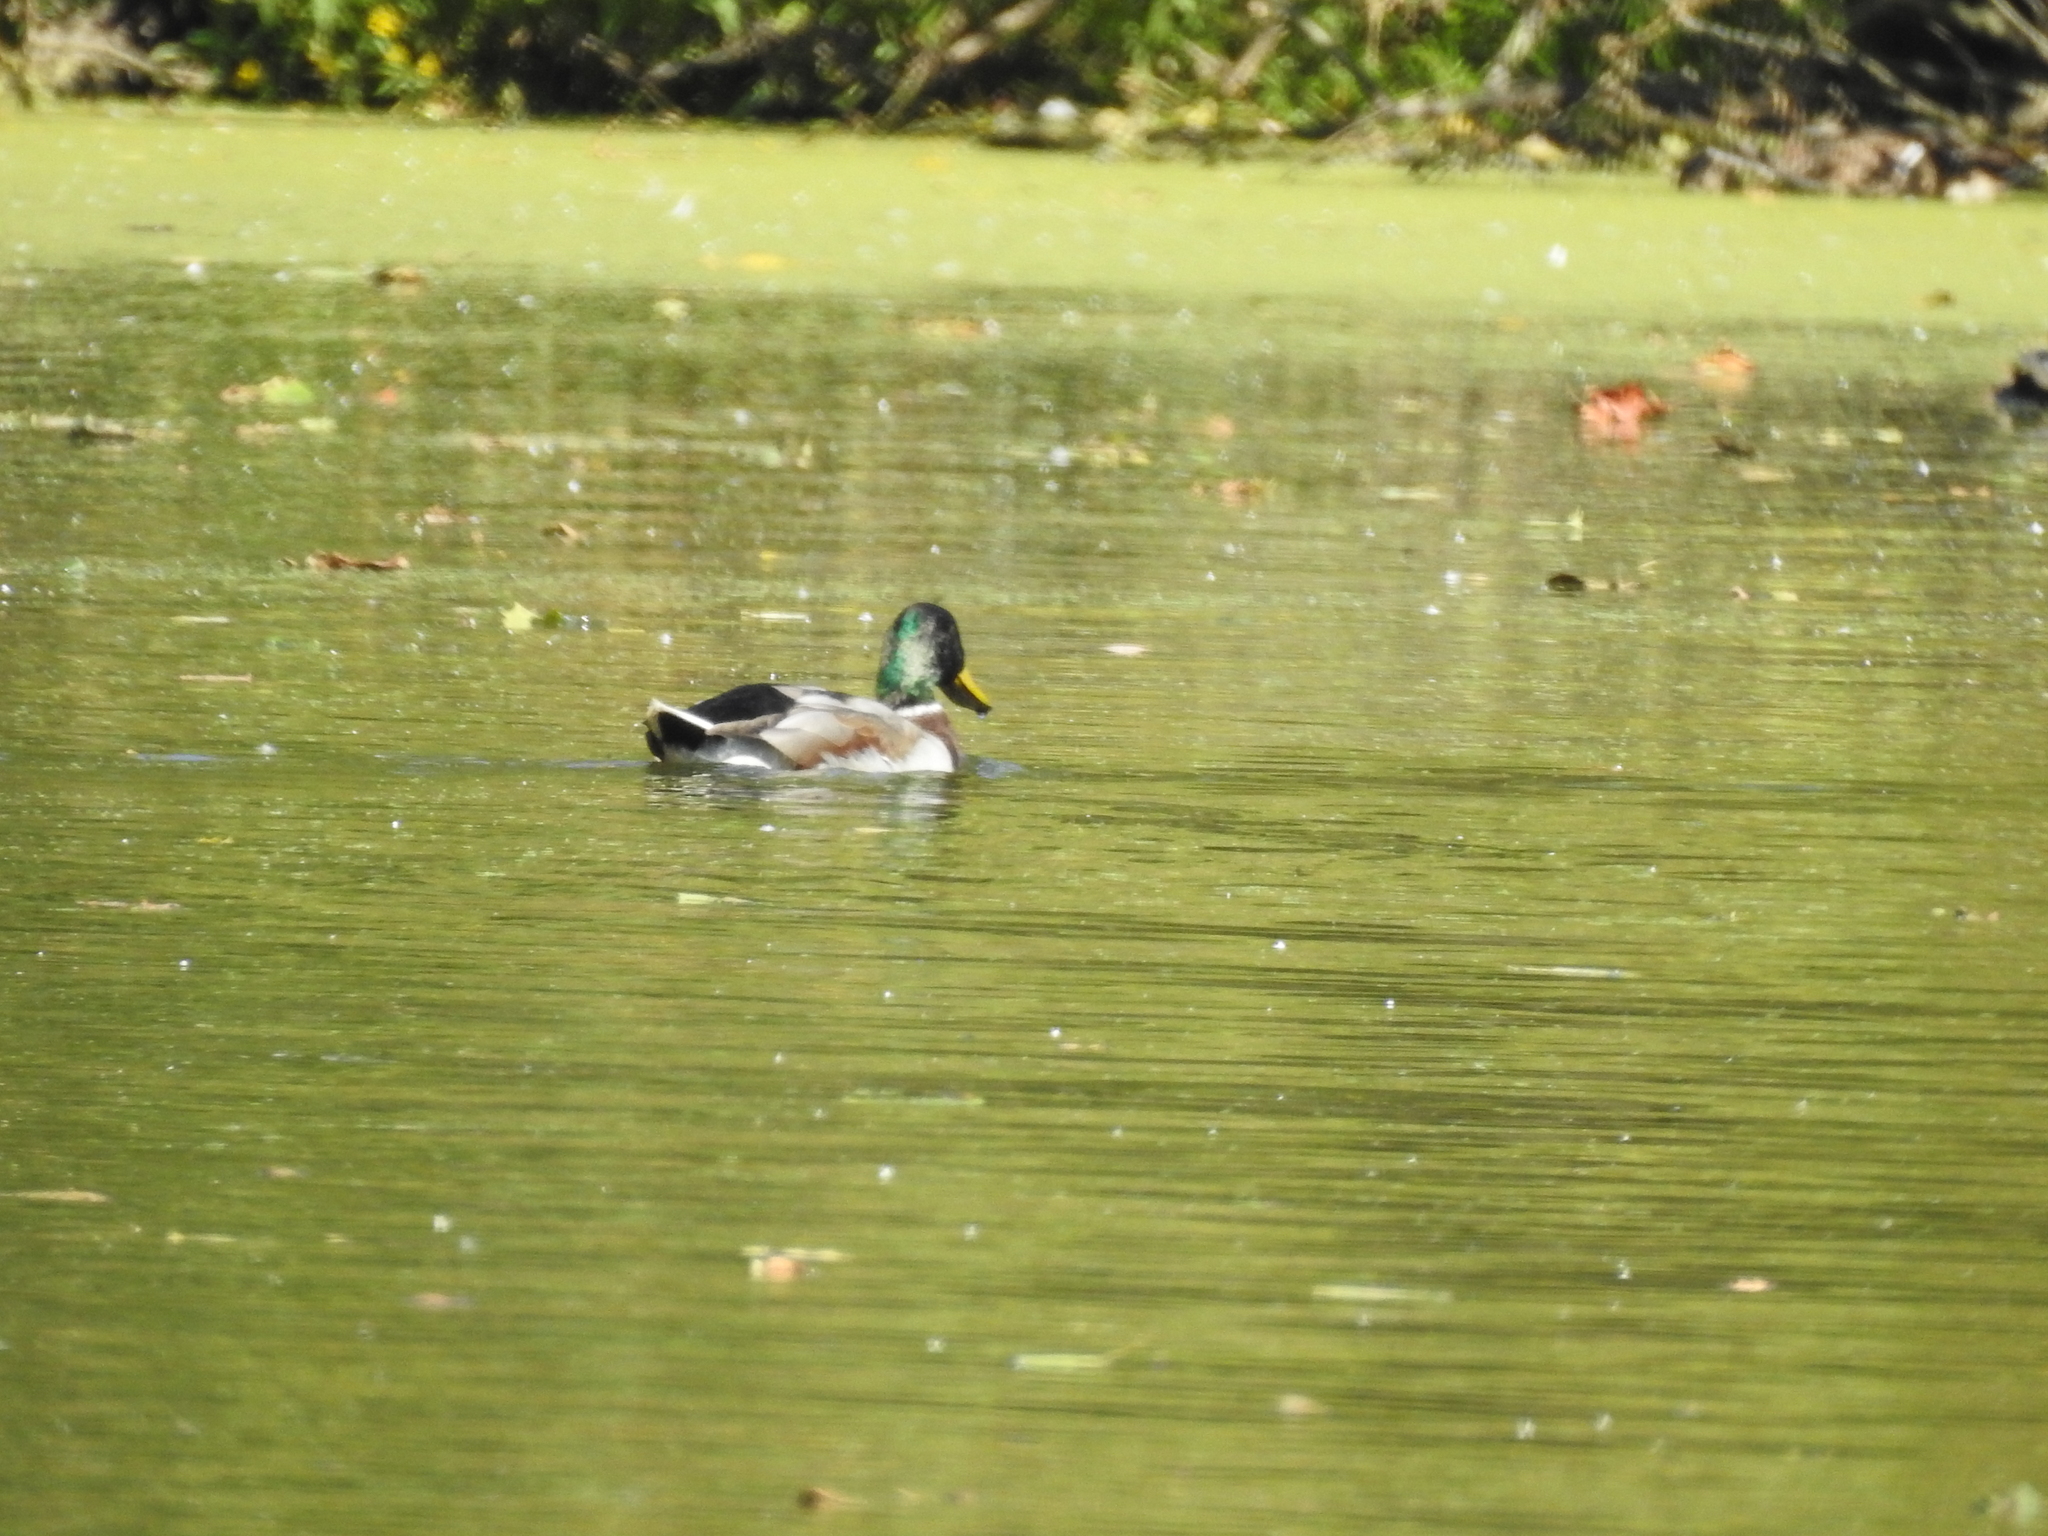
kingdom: Animalia
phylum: Chordata
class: Aves
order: Anseriformes
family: Anatidae
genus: Anas
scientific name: Anas platyrhynchos
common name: Mallard
